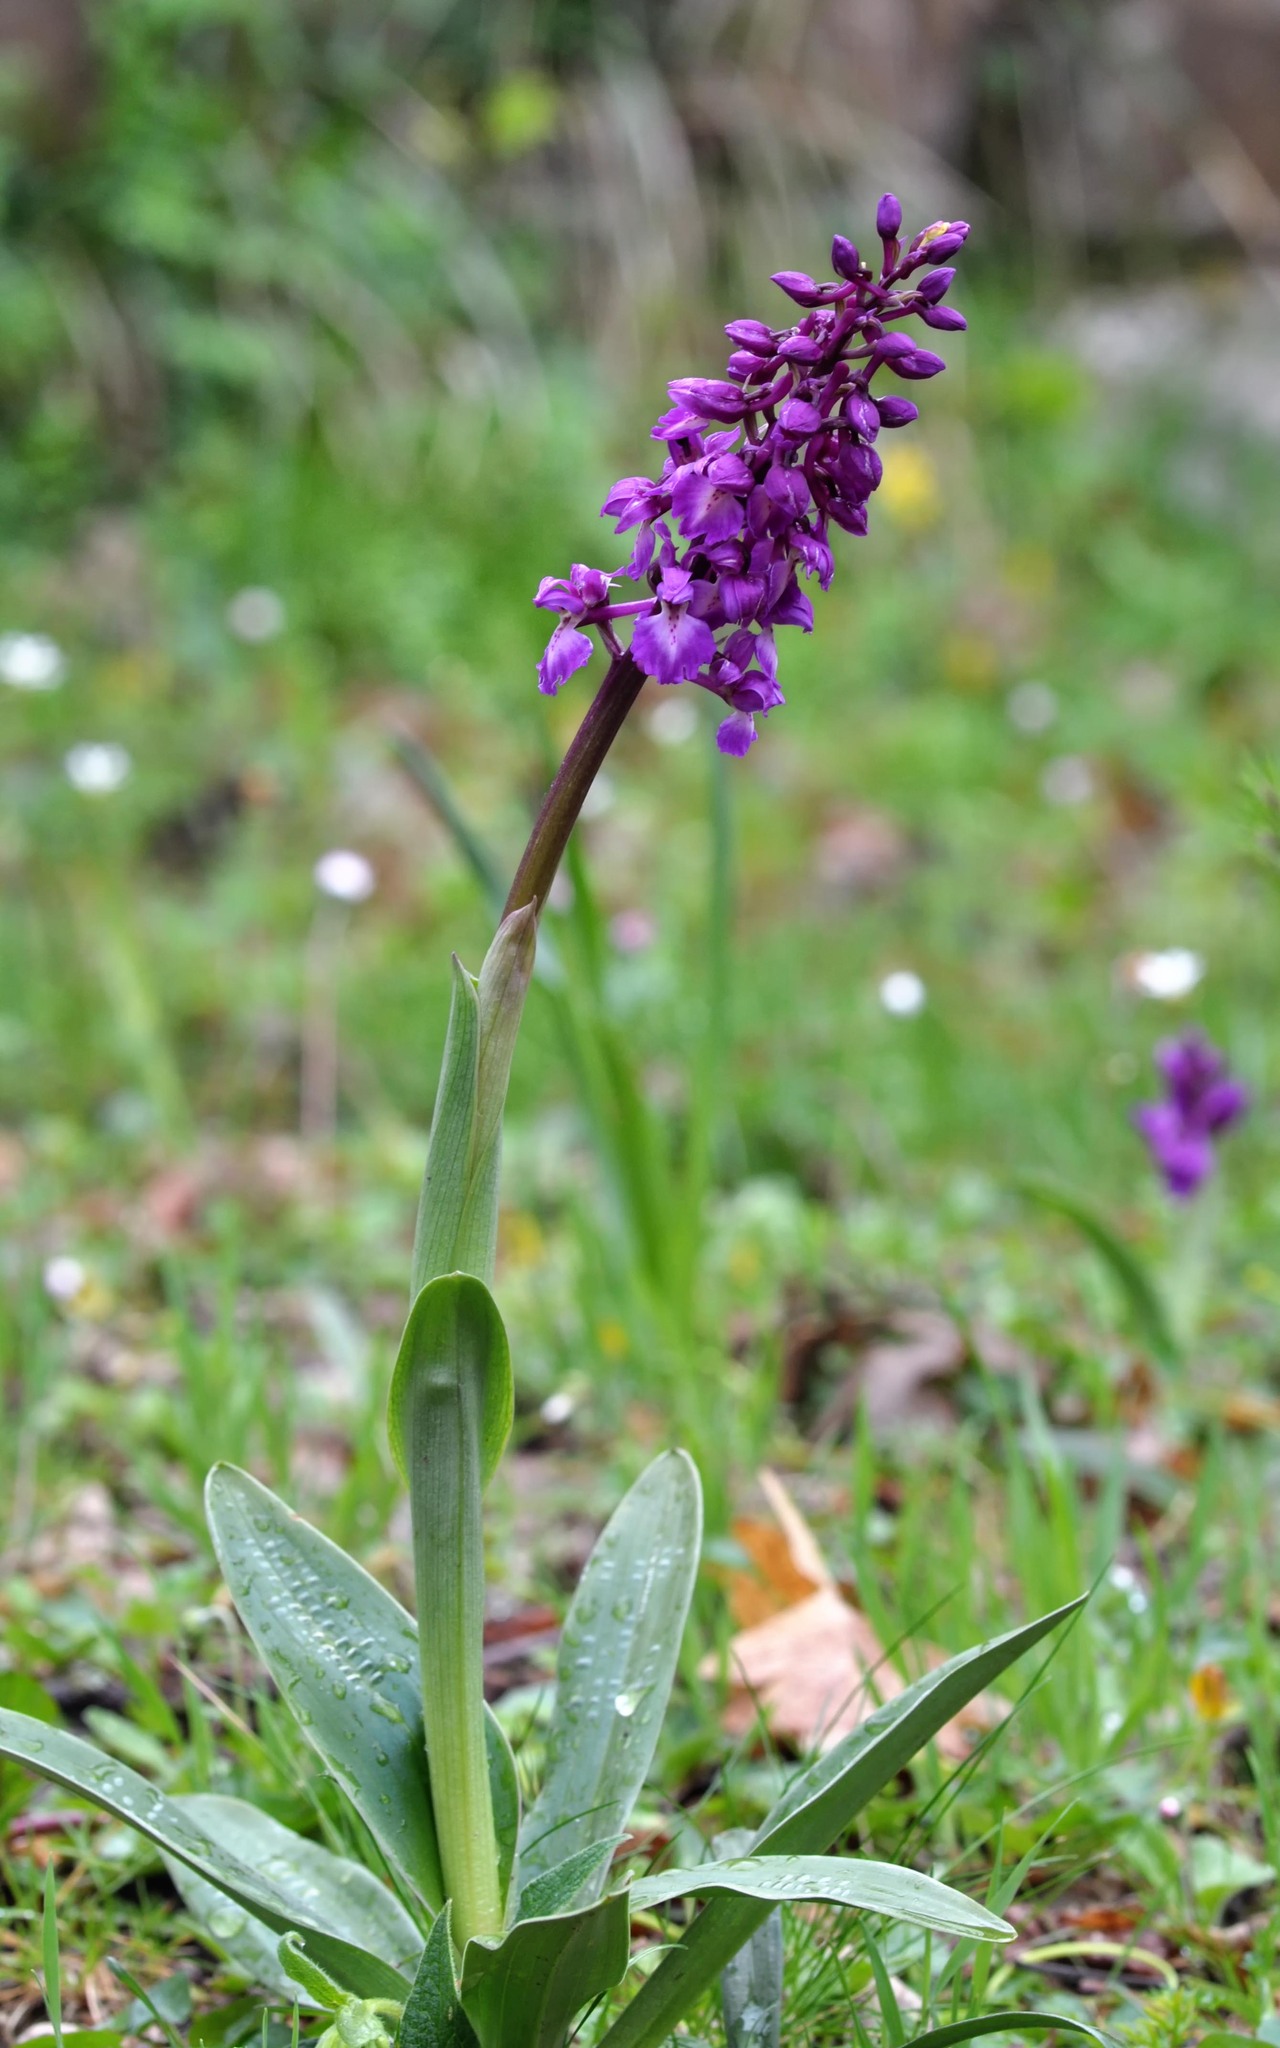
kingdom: Plantae
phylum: Tracheophyta
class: Liliopsida
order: Asparagales
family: Orchidaceae
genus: Orchis
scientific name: Orchis mascula
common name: Early-purple orchid
